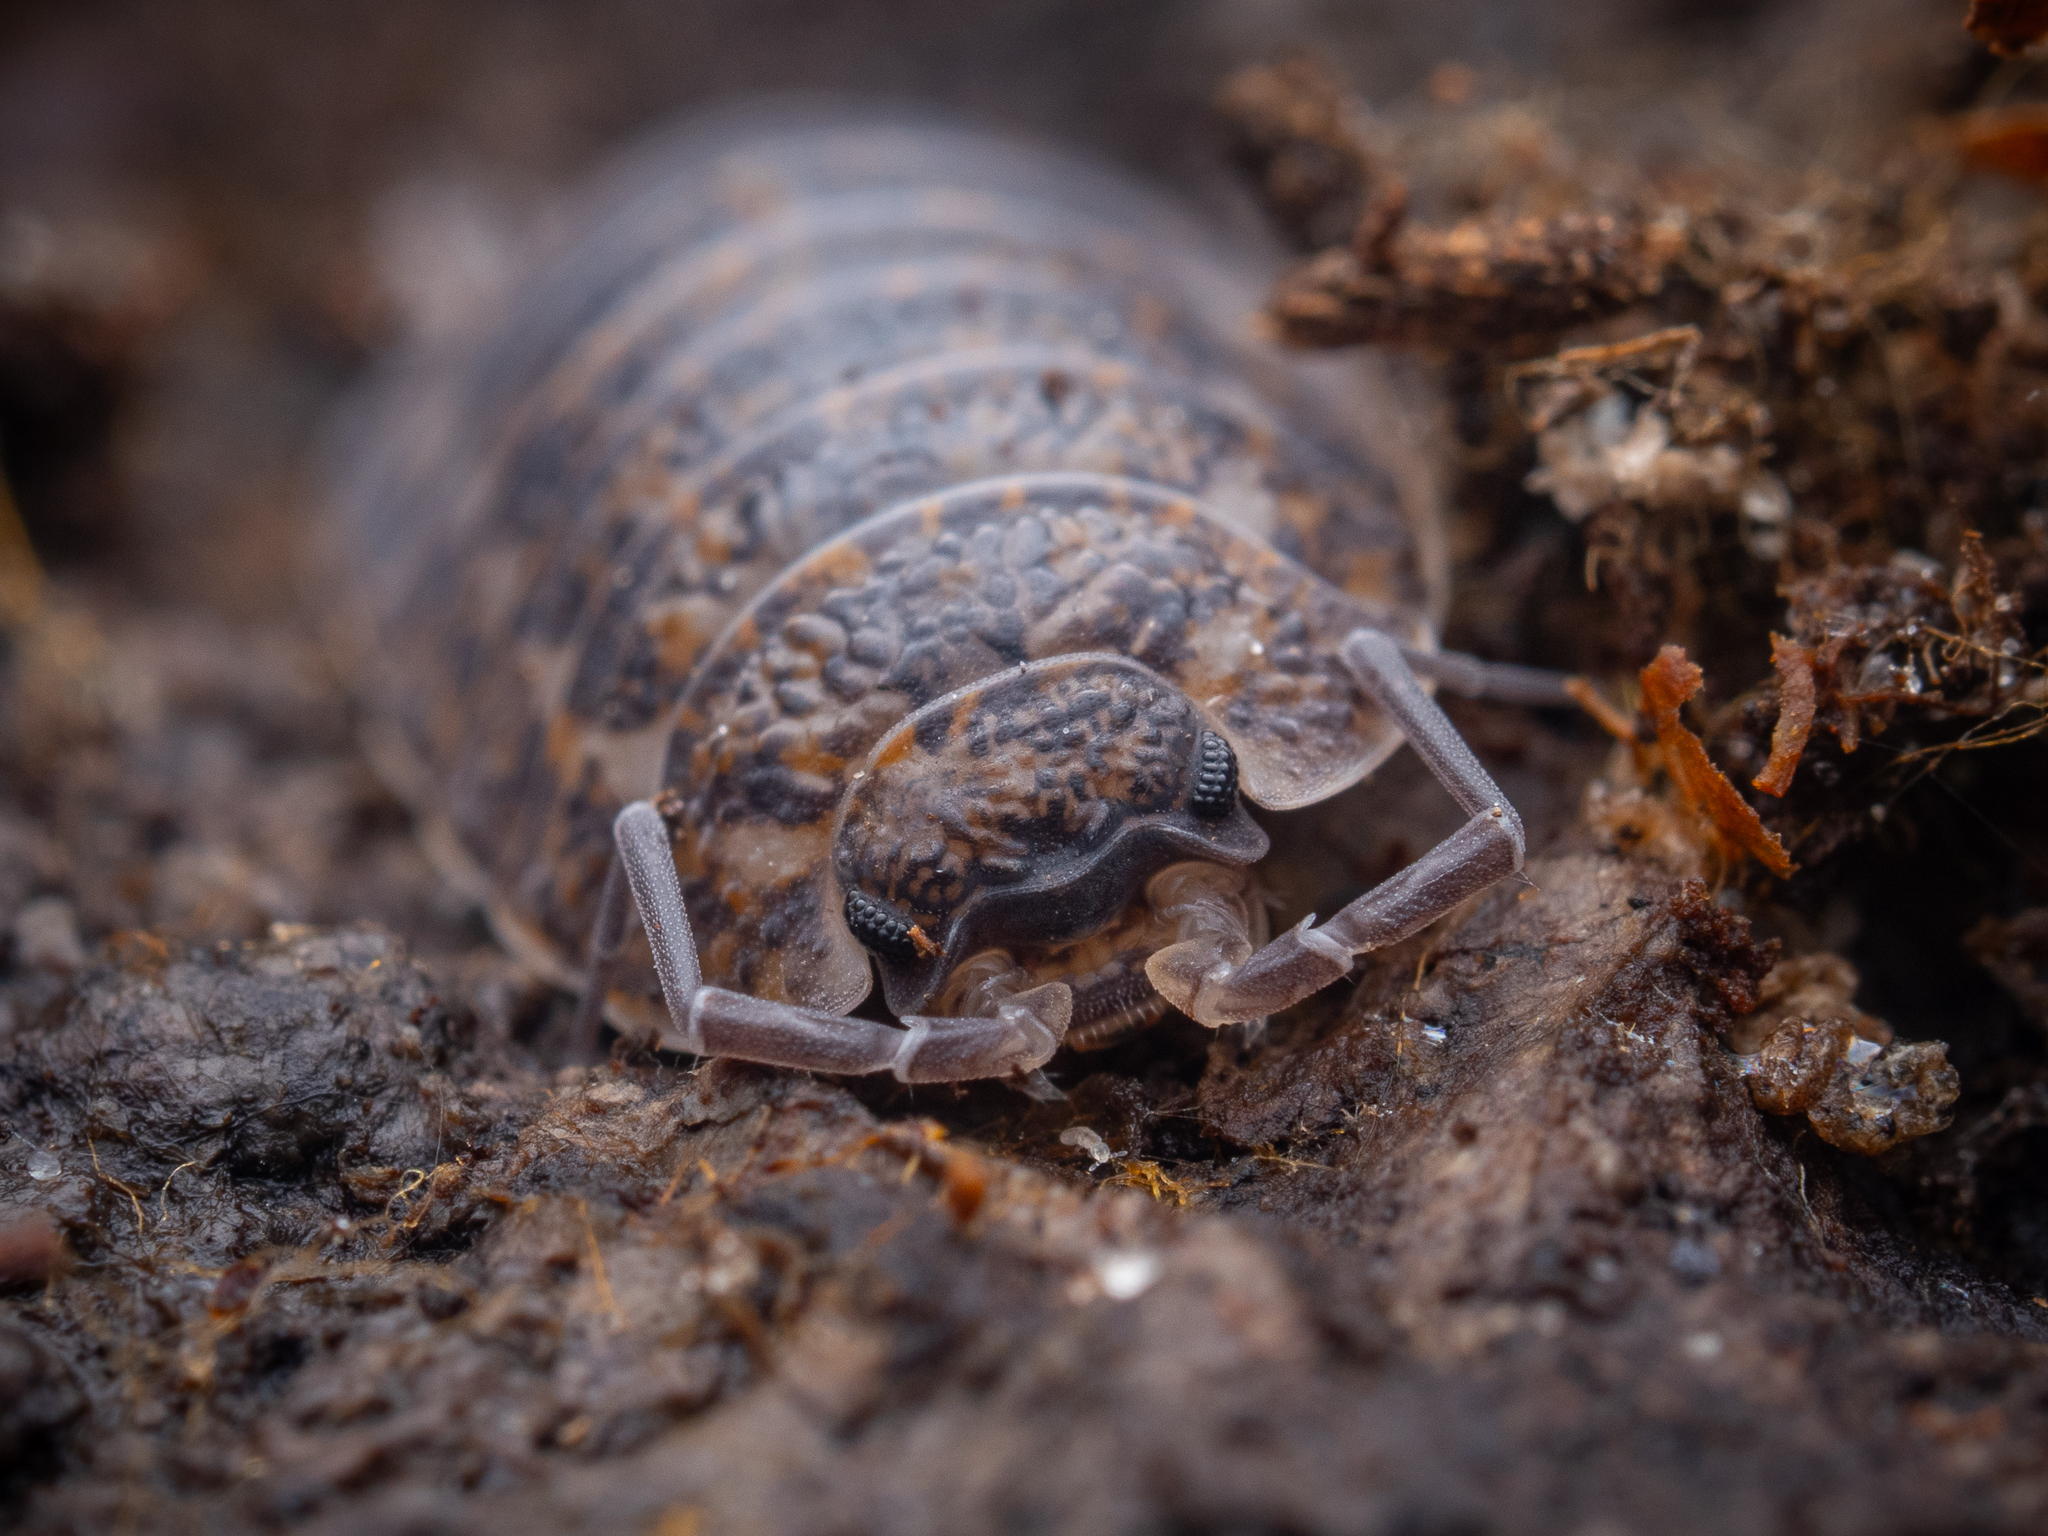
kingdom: Animalia
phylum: Arthropoda
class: Malacostraca
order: Isopoda
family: Trachelipodidae
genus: Trachelipus
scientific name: Trachelipus rathkii
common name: Isopod
